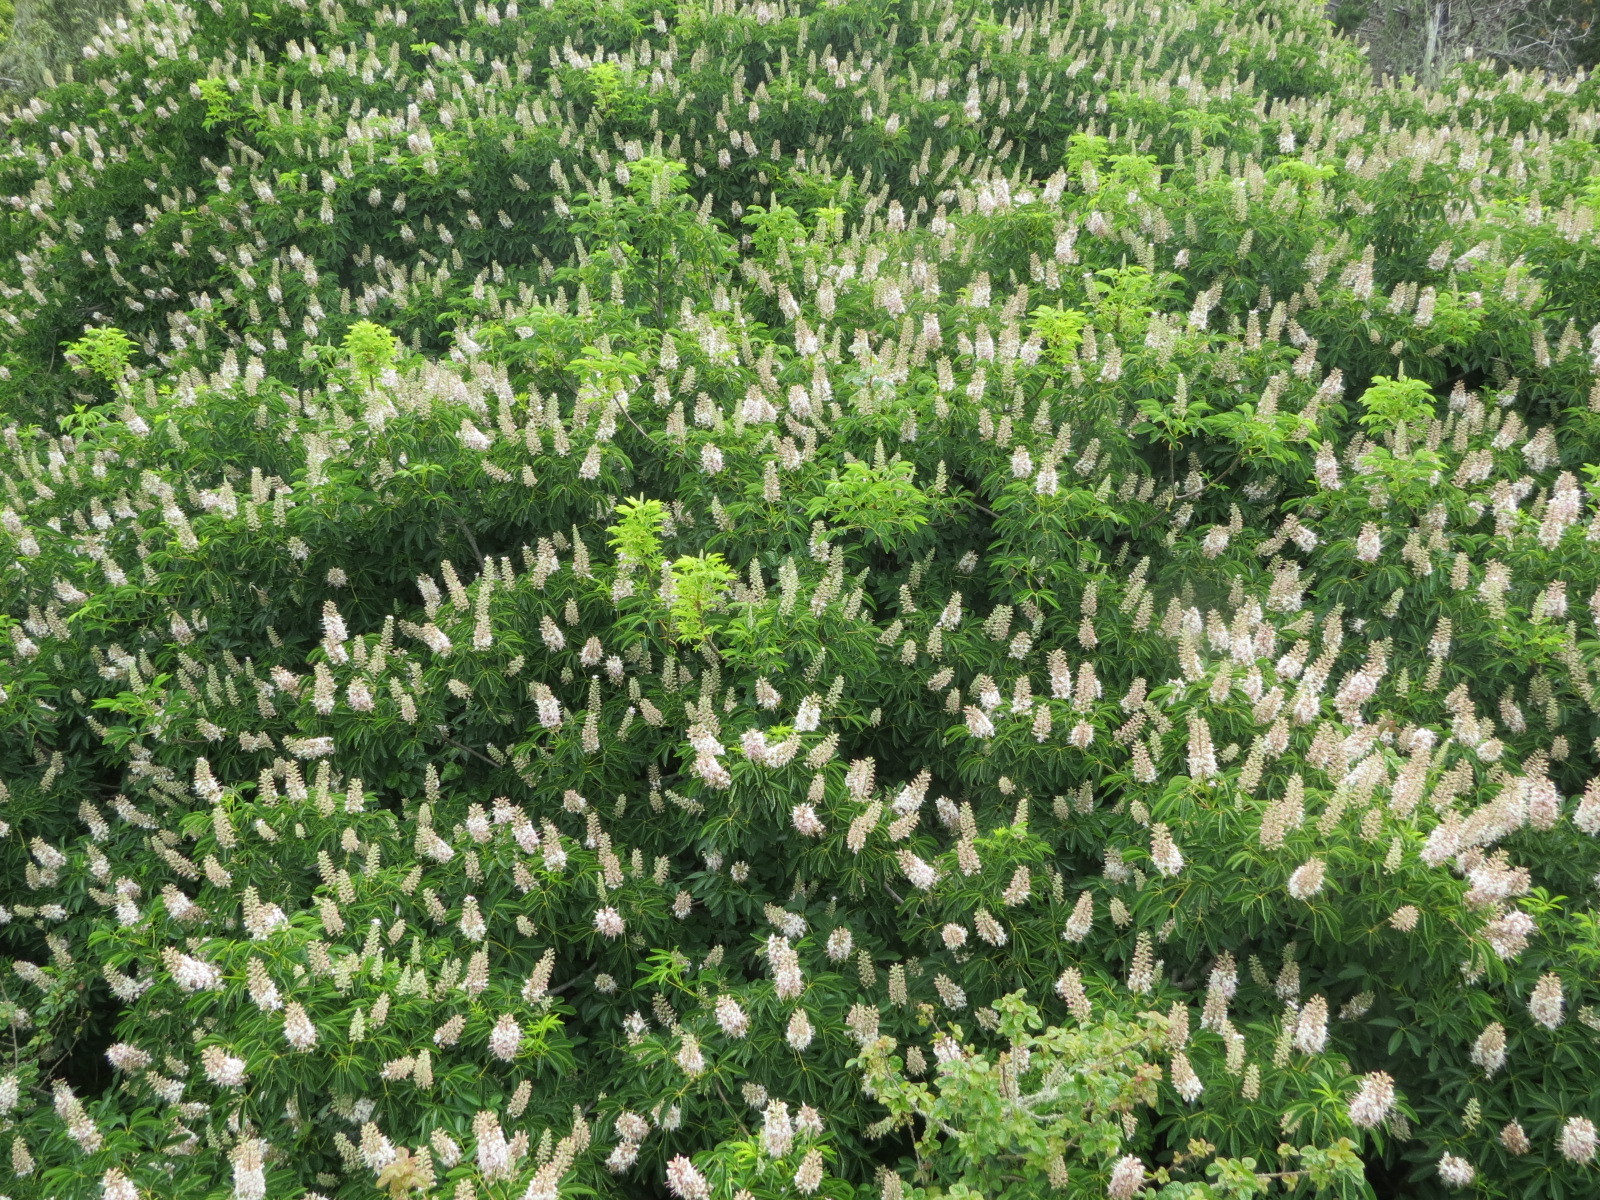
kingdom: Plantae
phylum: Tracheophyta
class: Magnoliopsida
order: Sapindales
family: Sapindaceae
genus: Aesculus
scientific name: Aesculus californica
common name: California buckeye
